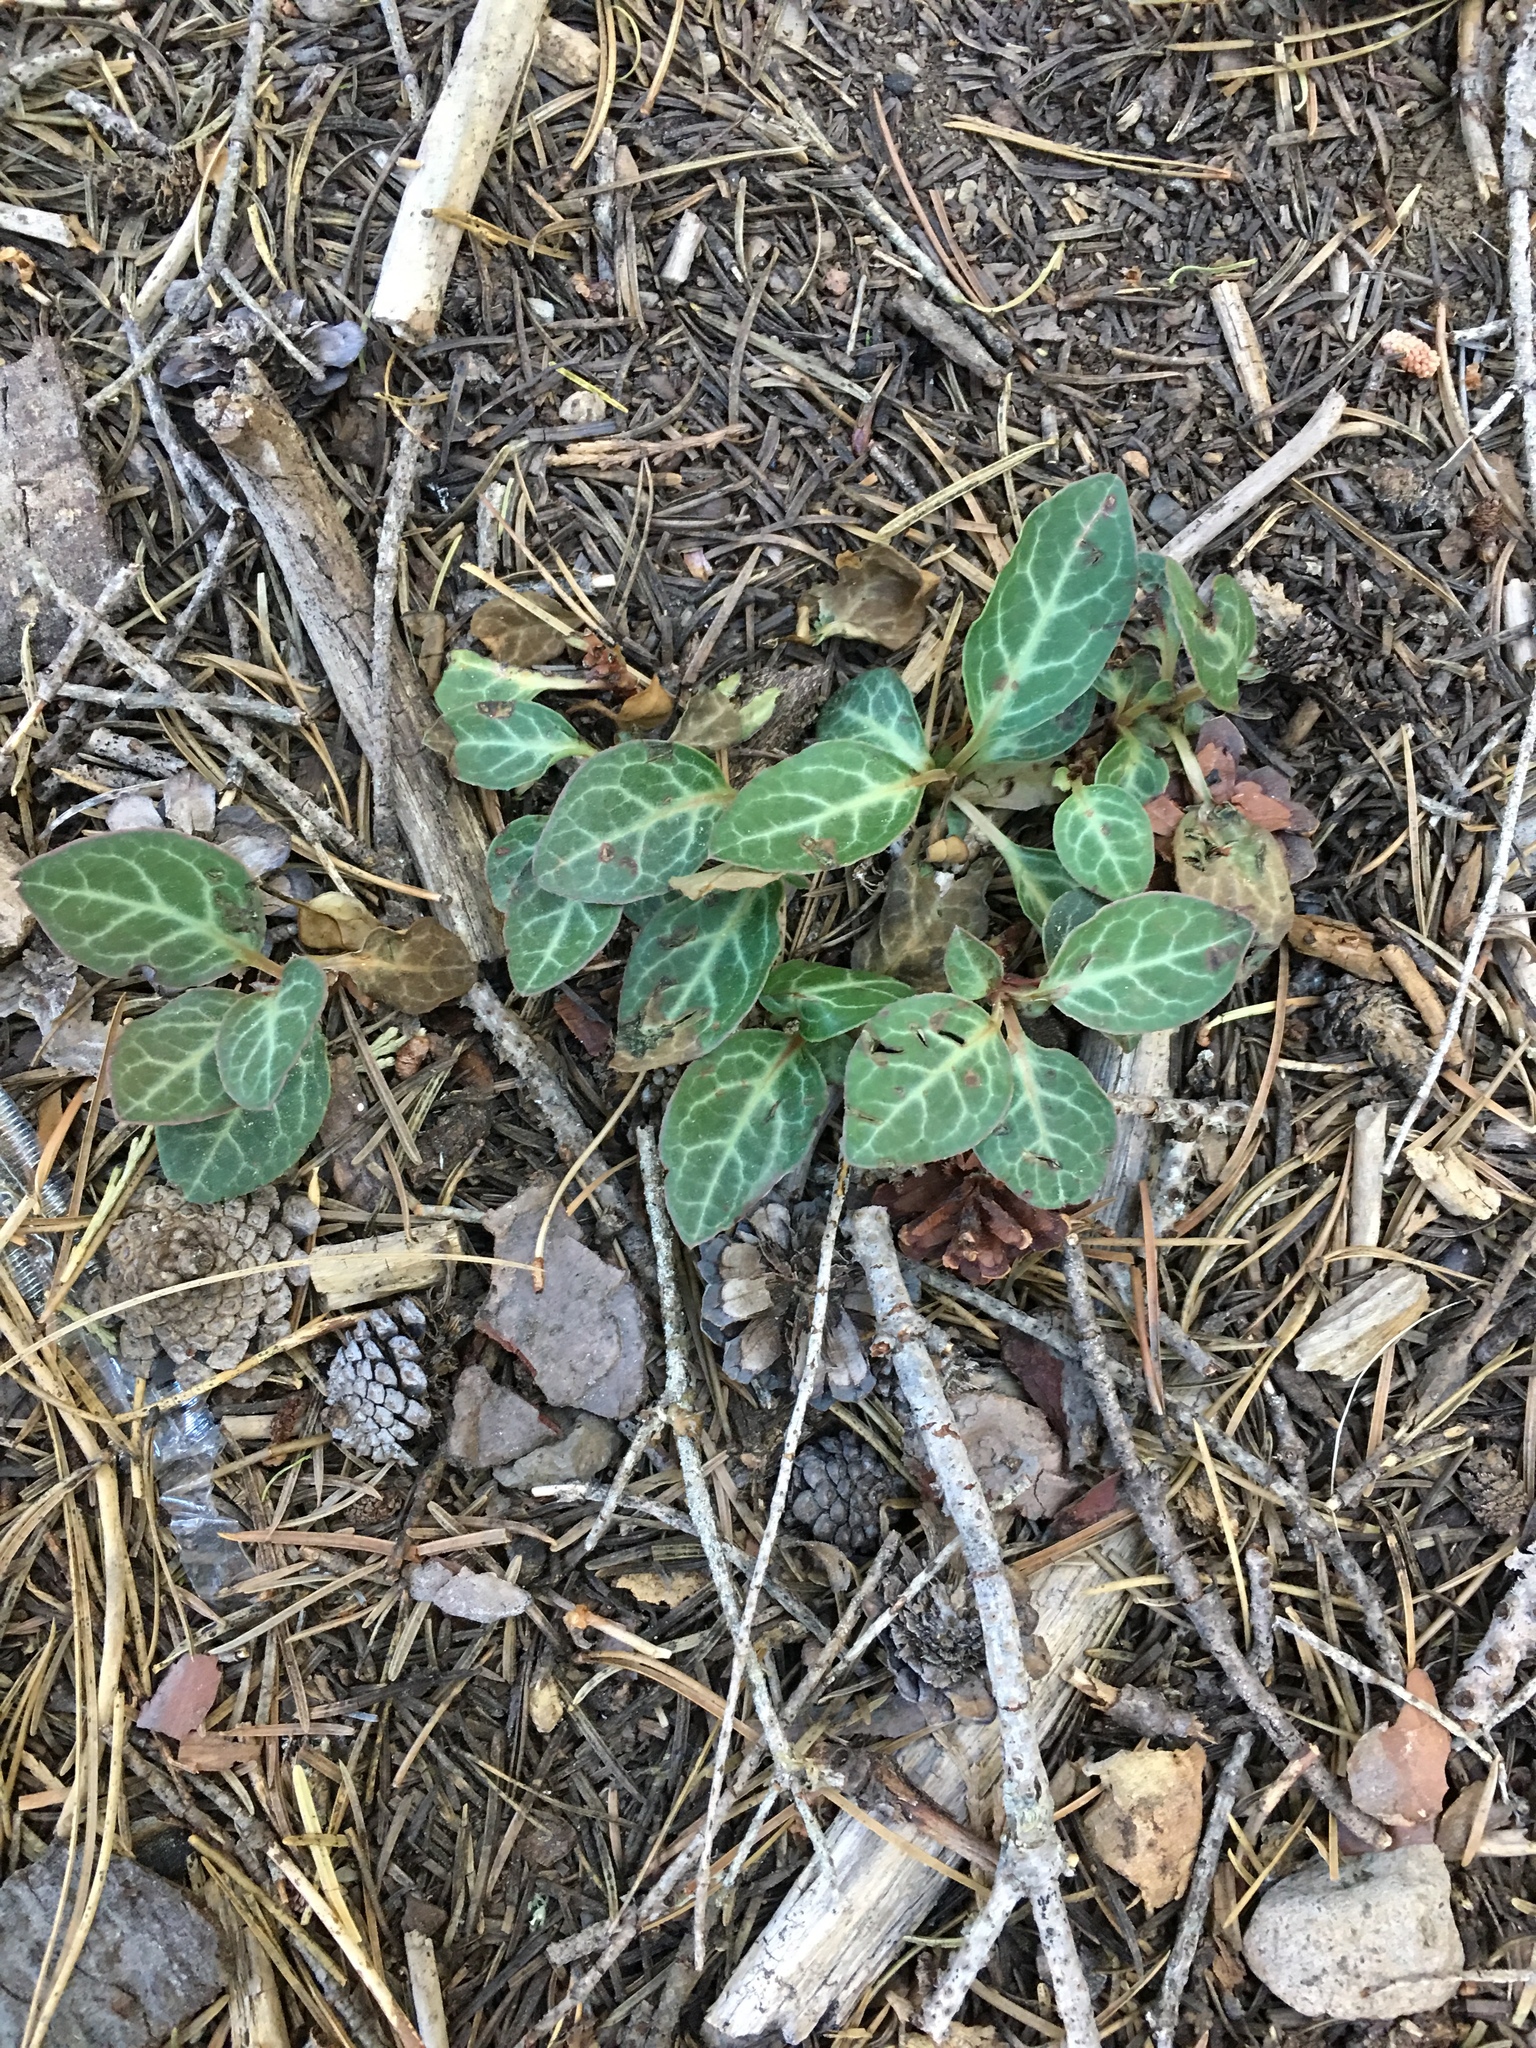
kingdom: Plantae
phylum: Tracheophyta
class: Magnoliopsida
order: Ericales
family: Ericaceae
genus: Pyrola
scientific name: Pyrola picta
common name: White-vein wintergreen
